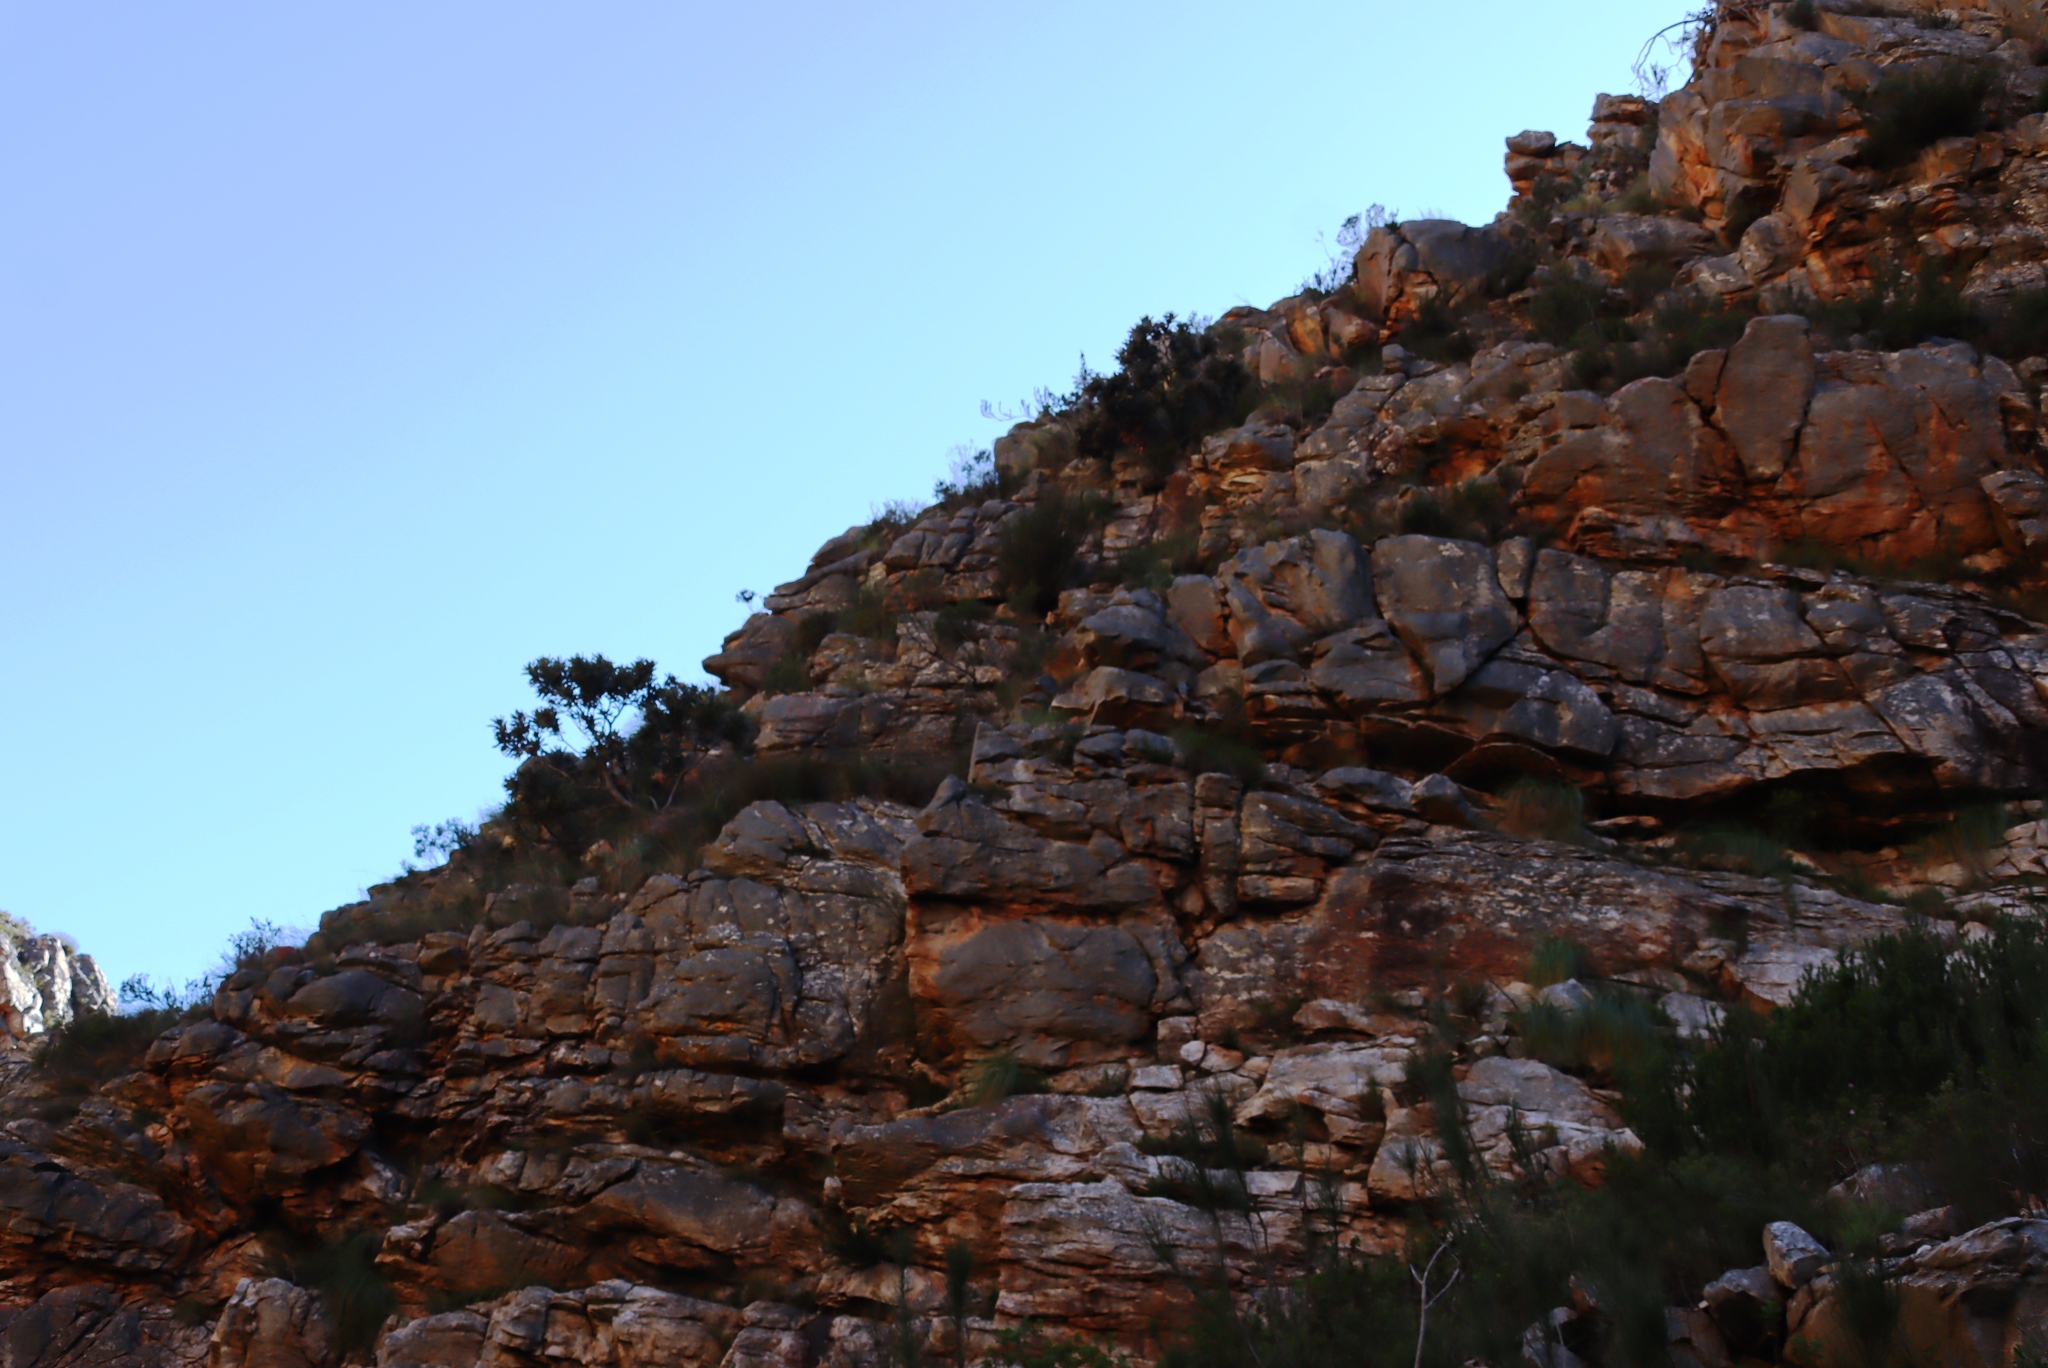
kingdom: Plantae
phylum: Tracheophyta
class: Pinopsida
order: Pinales
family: Cupressaceae
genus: Widdringtonia
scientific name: Widdringtonia schwarzii
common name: Baviaans cedar
